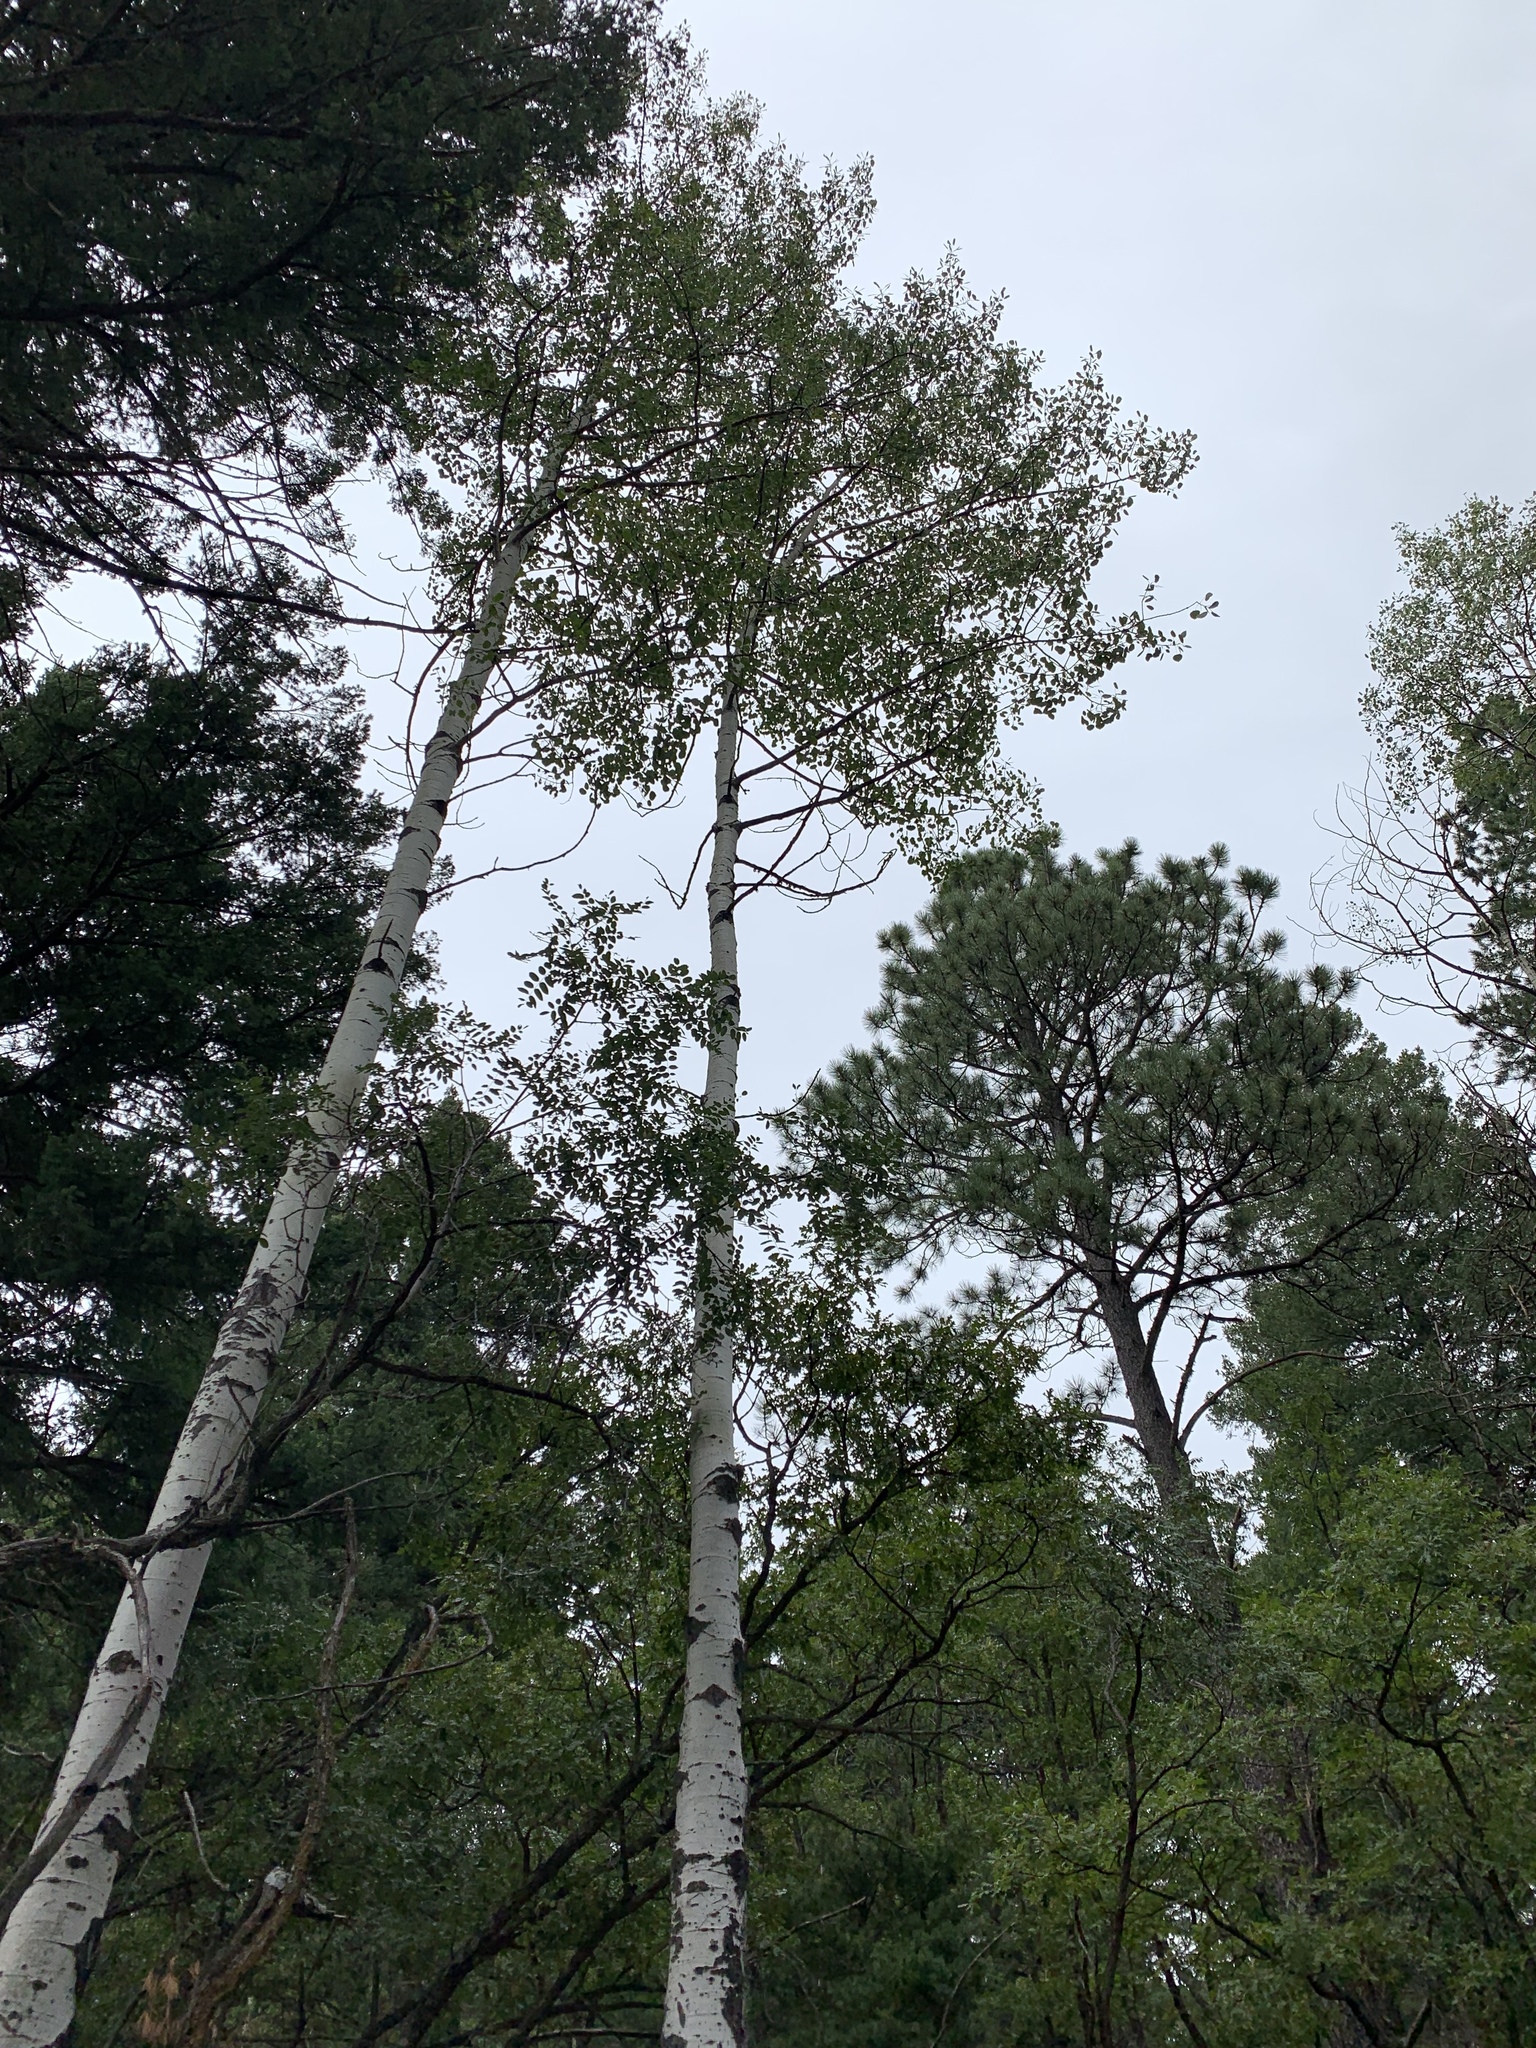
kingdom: Plantae
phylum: Tracheophyta
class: Magnoliopsida
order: Malpighiales
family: Salicaceae
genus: Populus
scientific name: Populus tremuloides
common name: Quaking aspen
